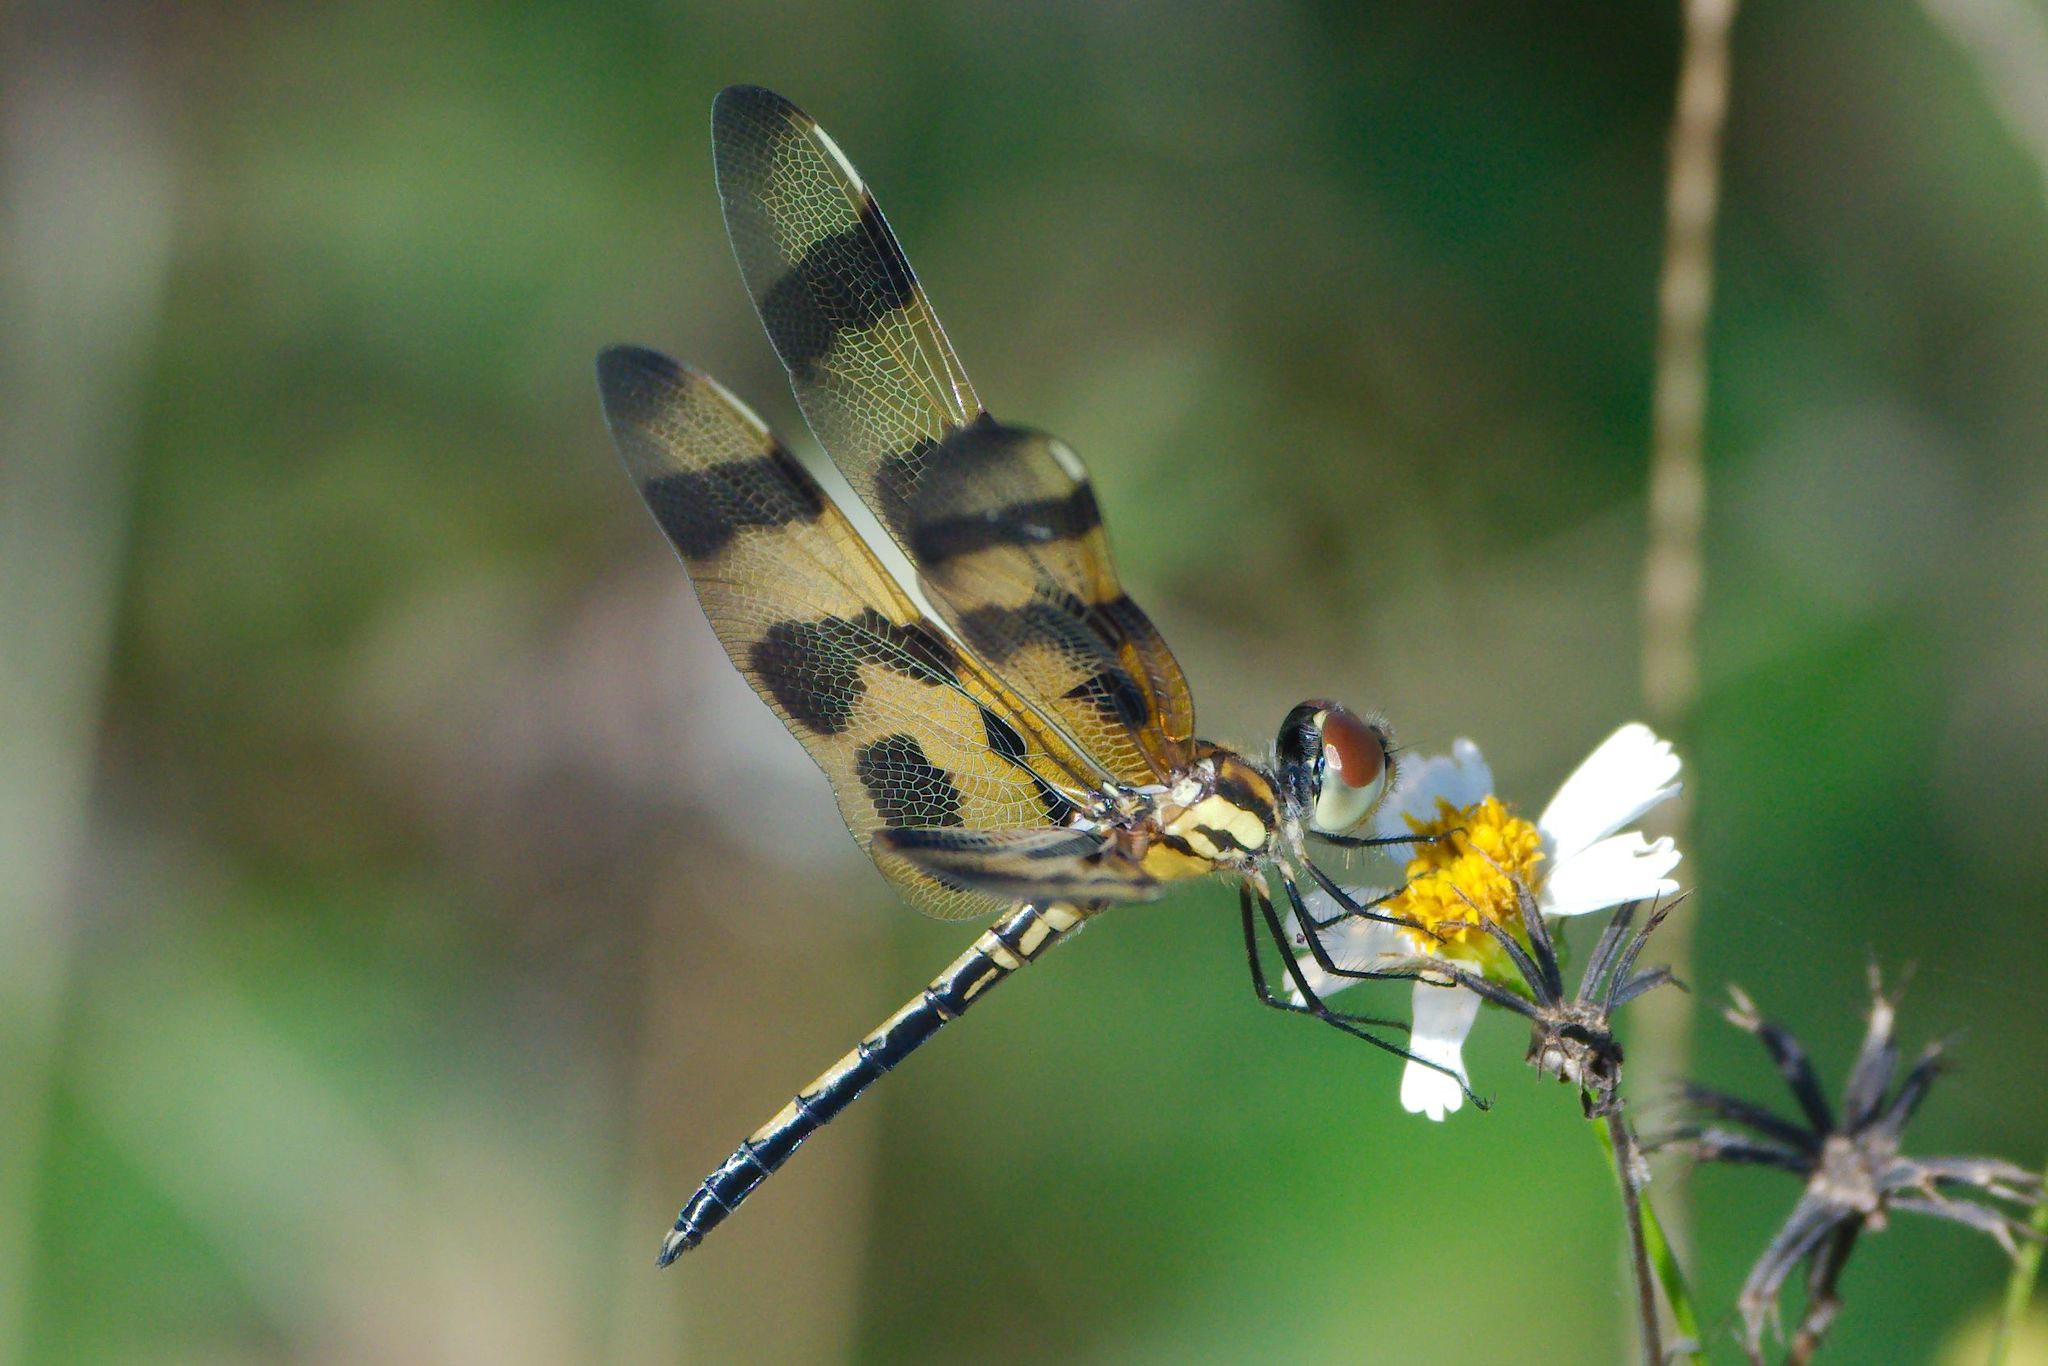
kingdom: Animalia
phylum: Arthropoda
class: Insecta
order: Odonata
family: Libellulidae
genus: Celithemis
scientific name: Celithemis eponina
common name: Halloween pennant
